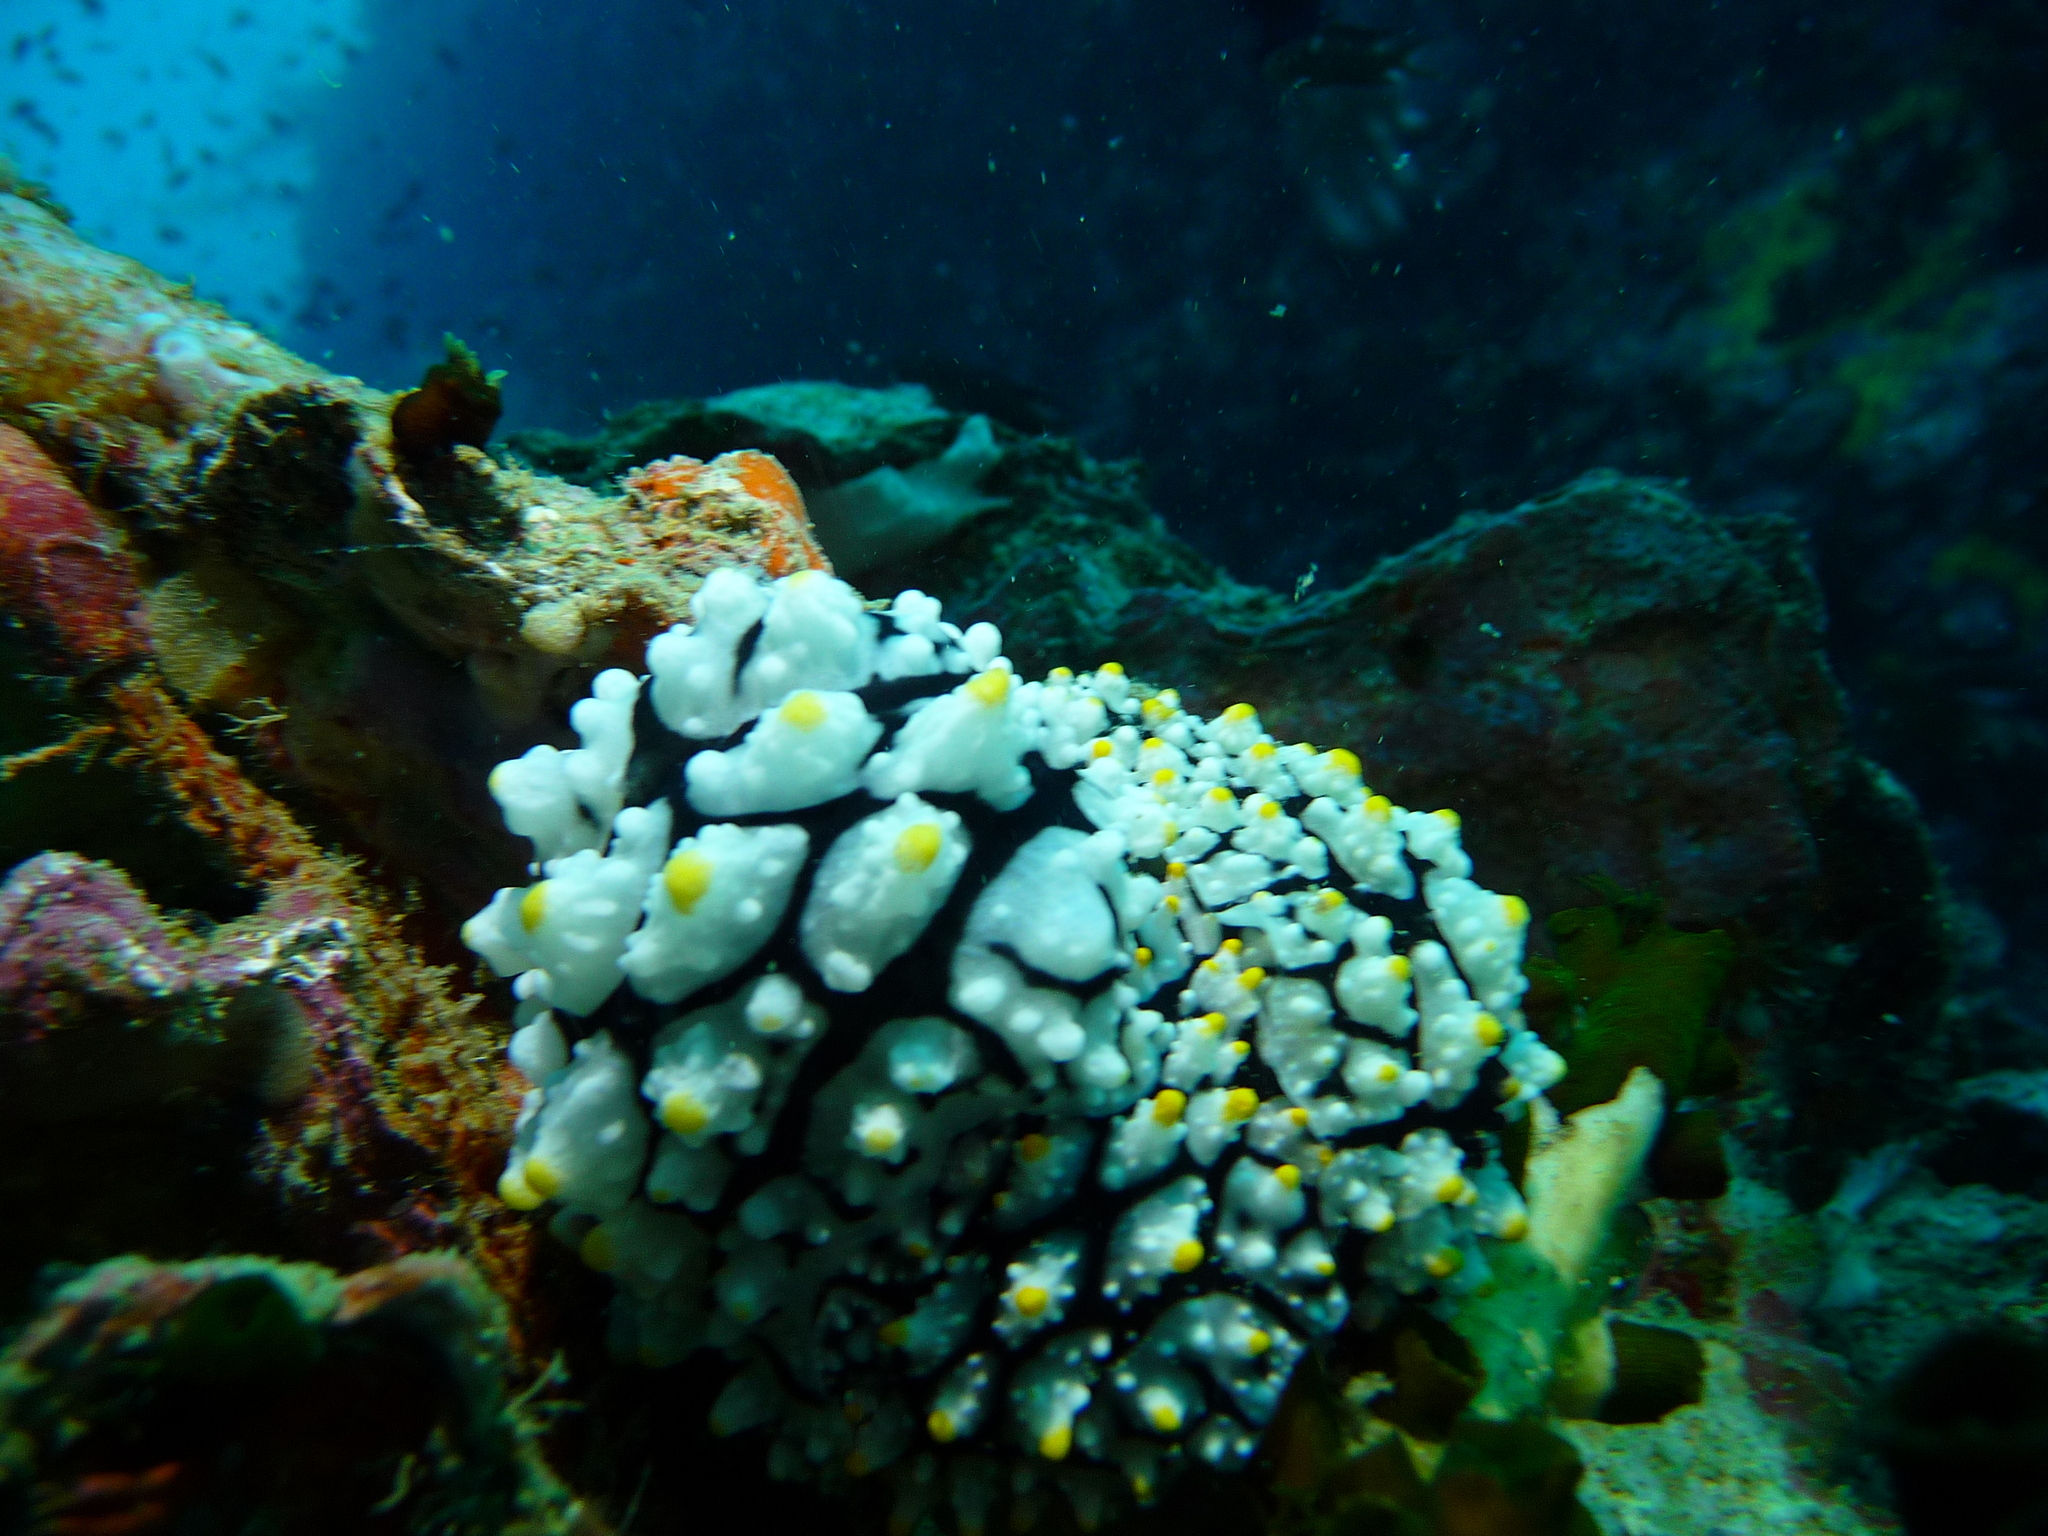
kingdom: Animalia
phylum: Mollusca
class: Gastropoda
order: Nudibranchia
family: Phyllidiidae
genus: Phyllidia
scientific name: Phyllidia elegans
